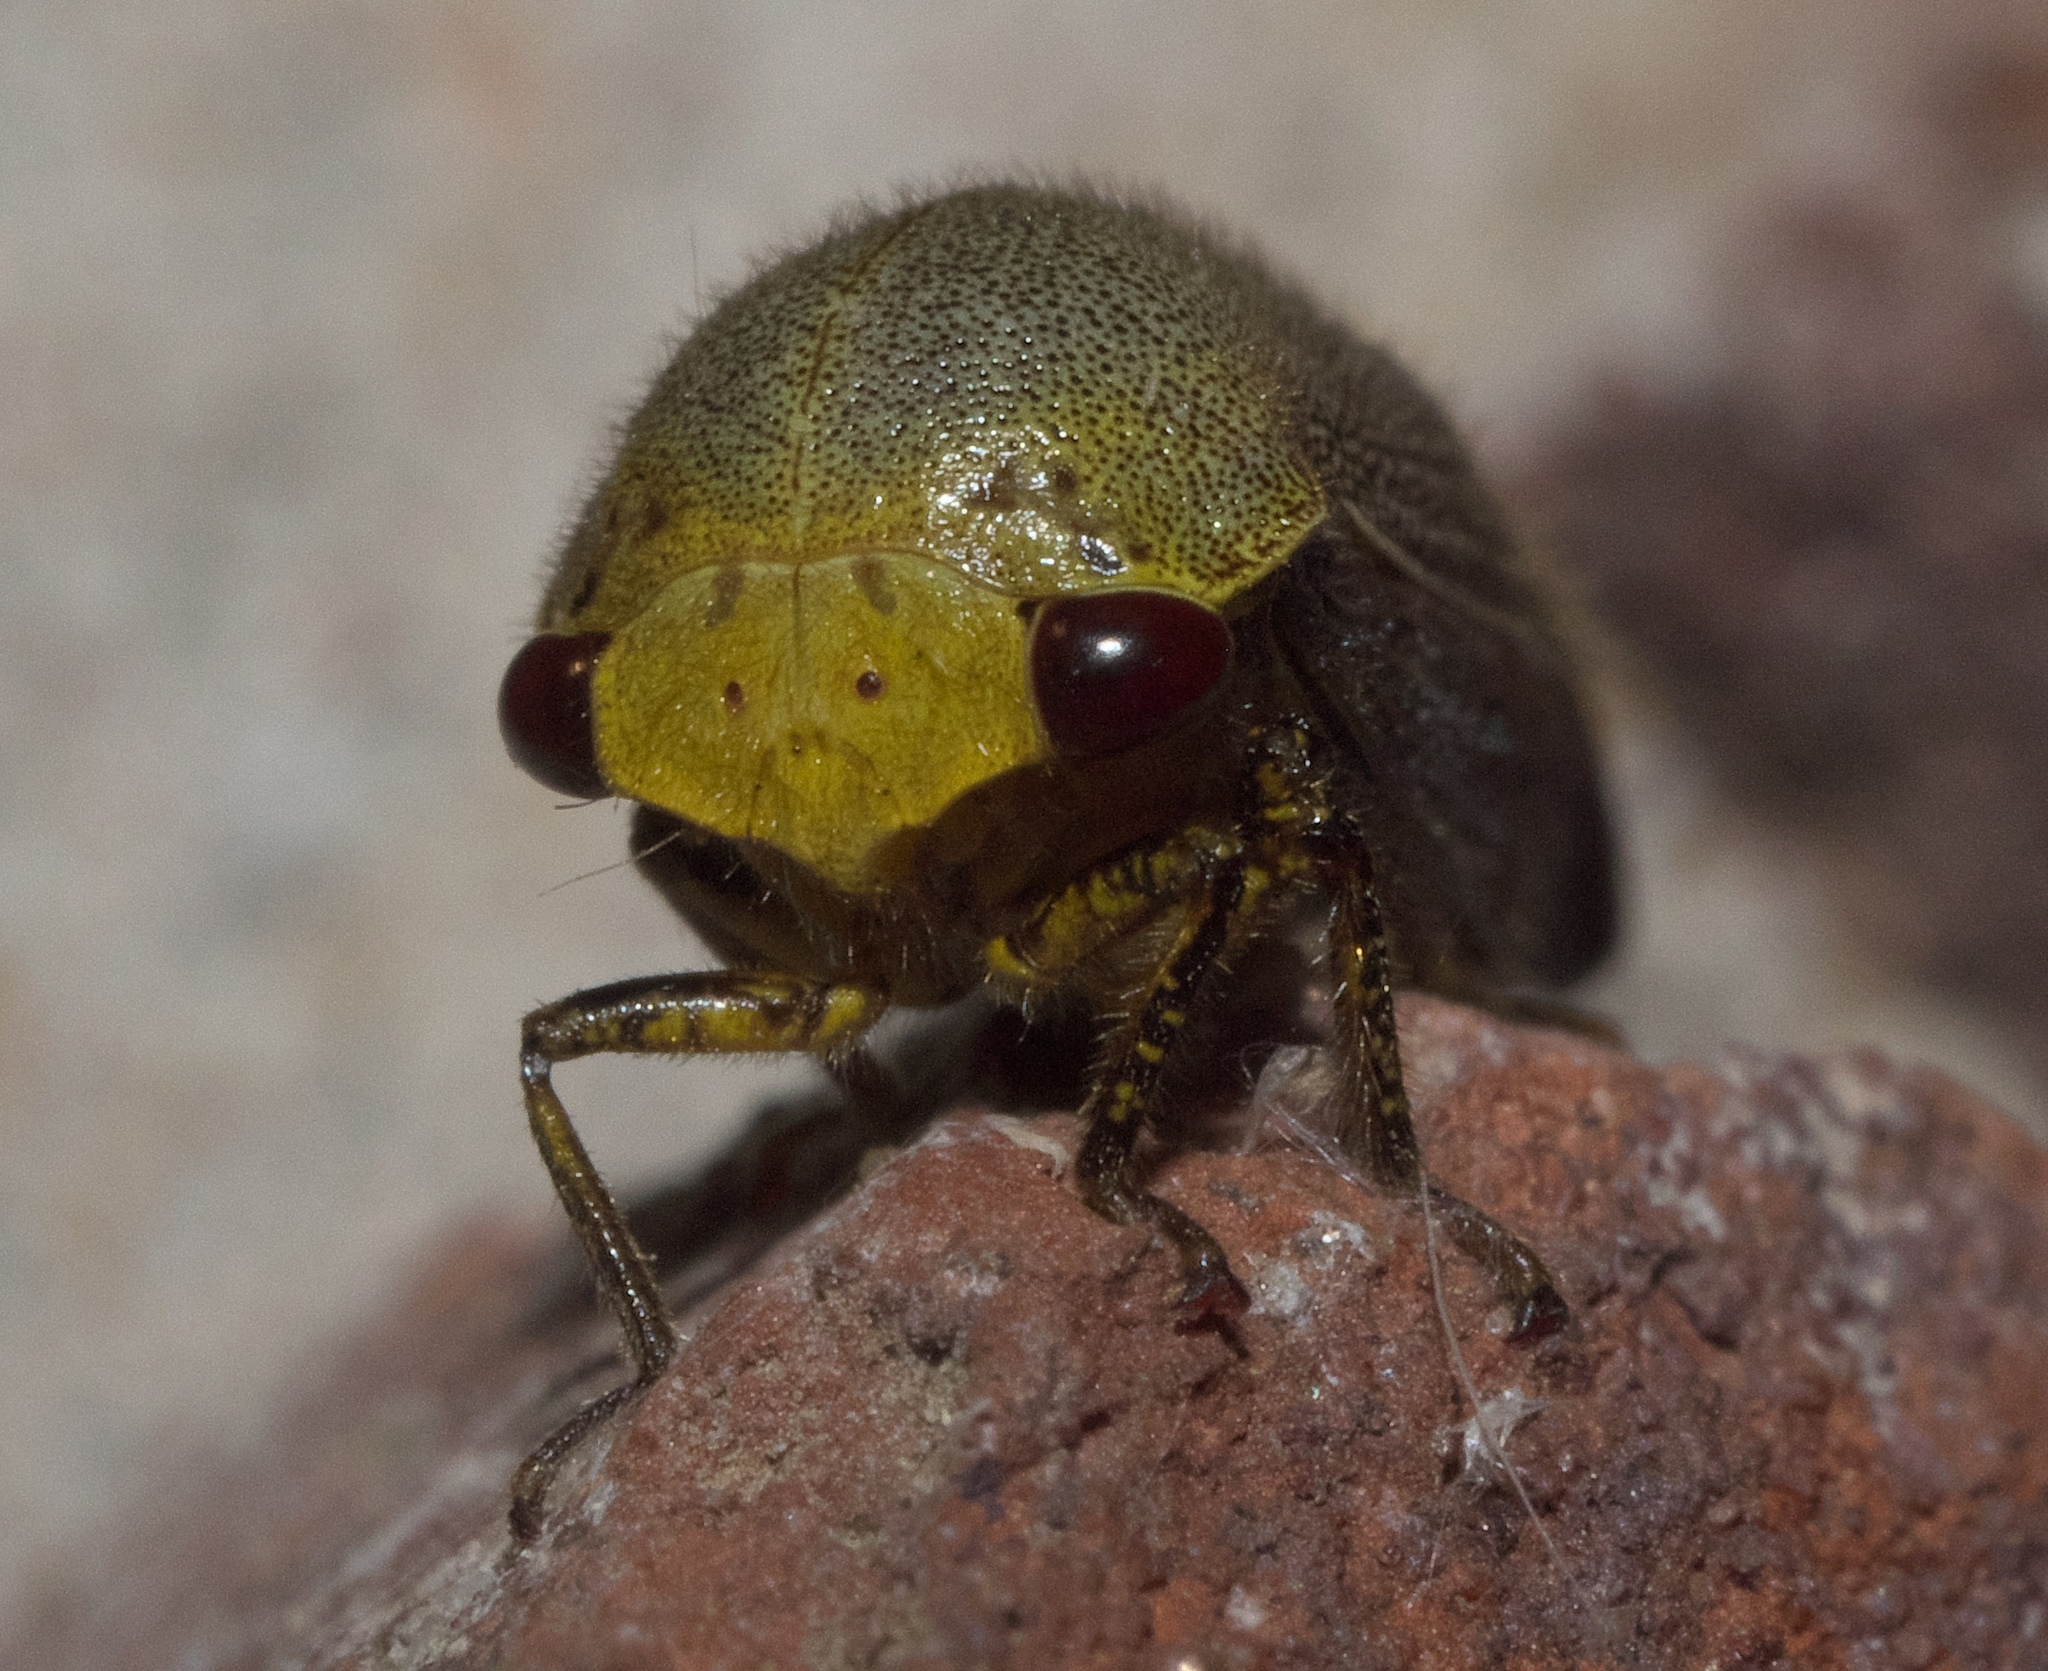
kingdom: Animalia
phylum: Arthropoda
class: Insecta
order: Hemiptera
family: Membracidae
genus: Carynota
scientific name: Carynota mera
